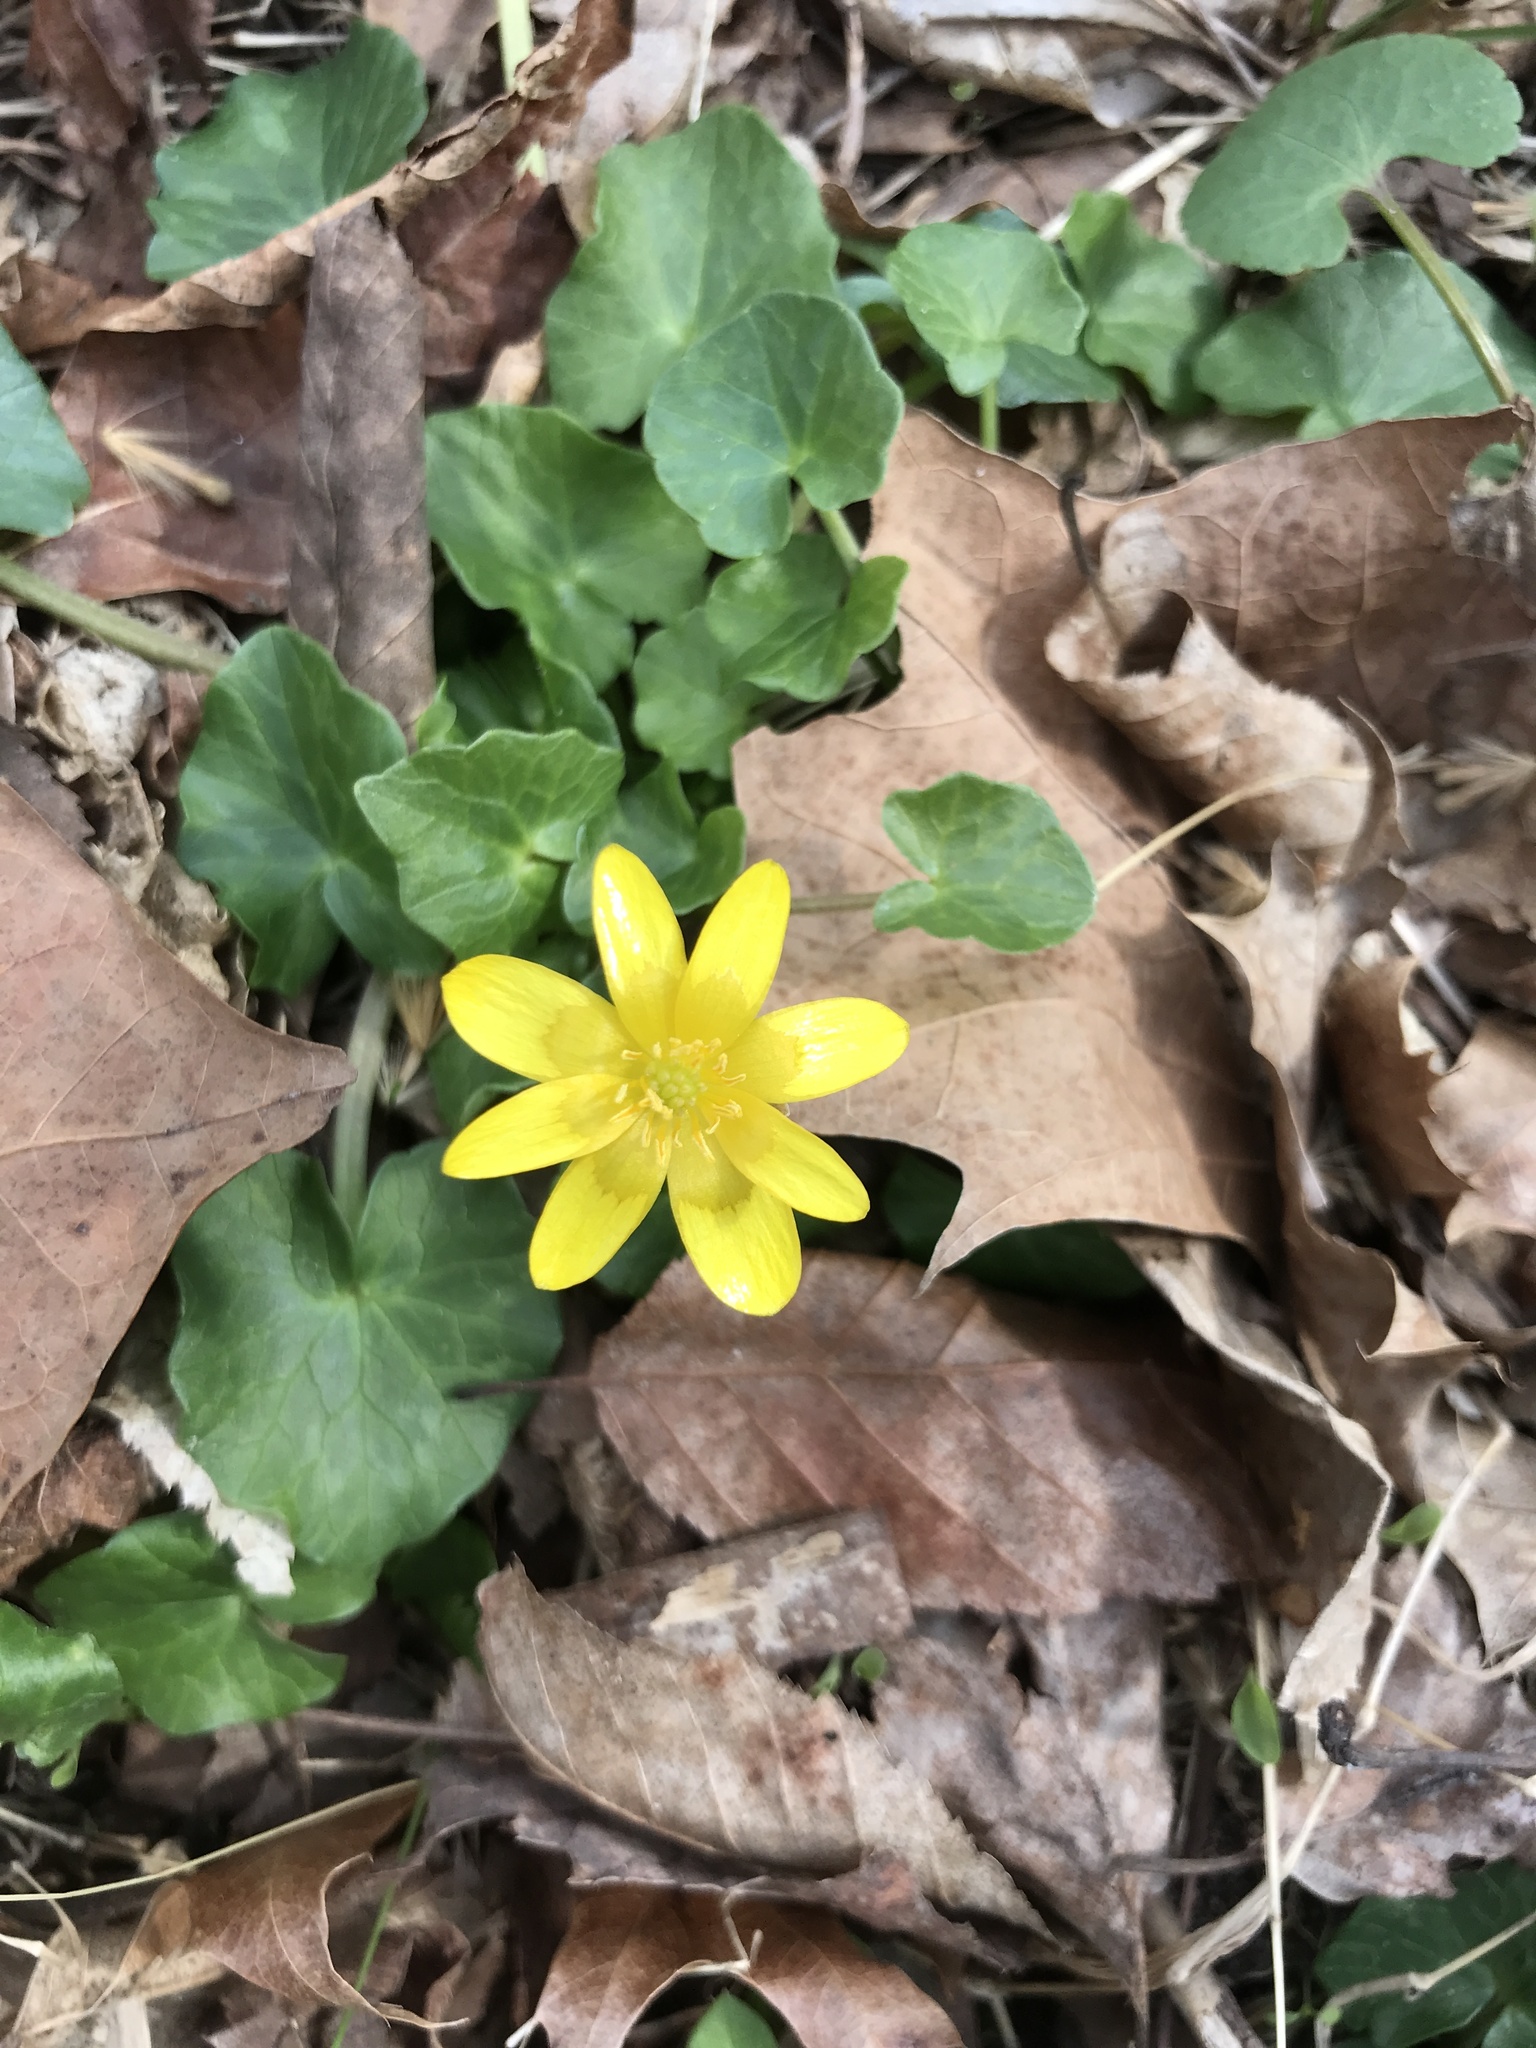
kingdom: Plantae
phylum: Tracheophyta
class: Magnoliopsida
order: Ranunculales
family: Ranunculaceae
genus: Ficaria
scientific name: Ficaria verna
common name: Lesser celandine
